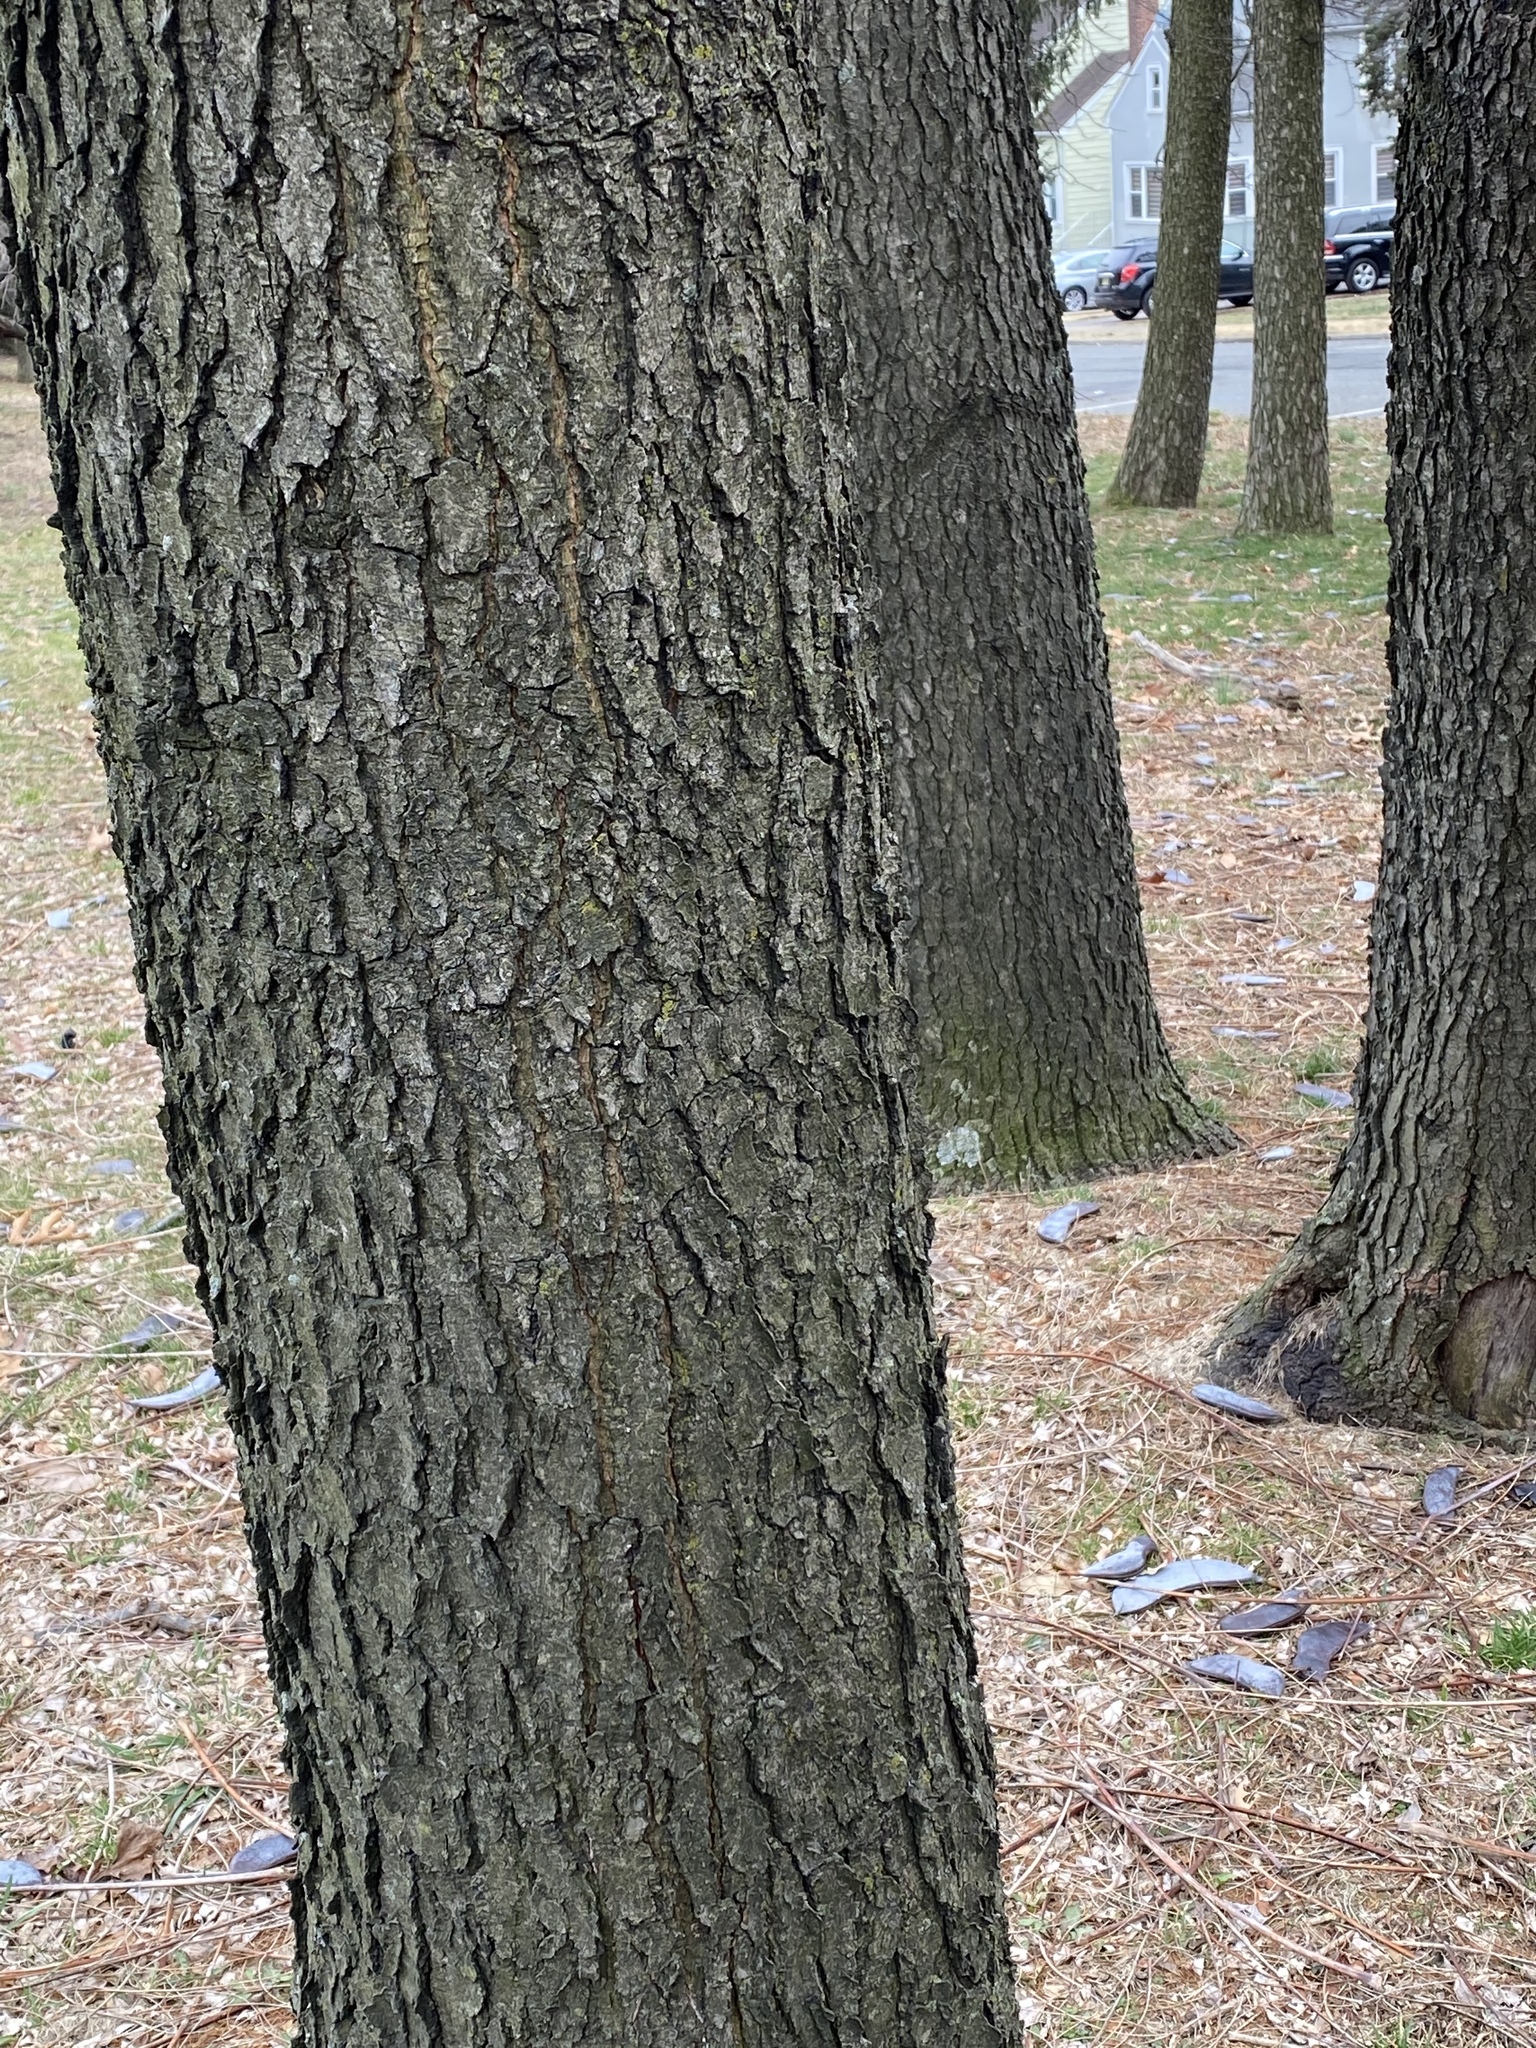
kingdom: Plantae
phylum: Tracheophyta
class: Magnoliopsida
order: Fabales
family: Fabaceae
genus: Gymnocladus
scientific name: Gymnocladus dioicus
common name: Kentucky coffee-tree
